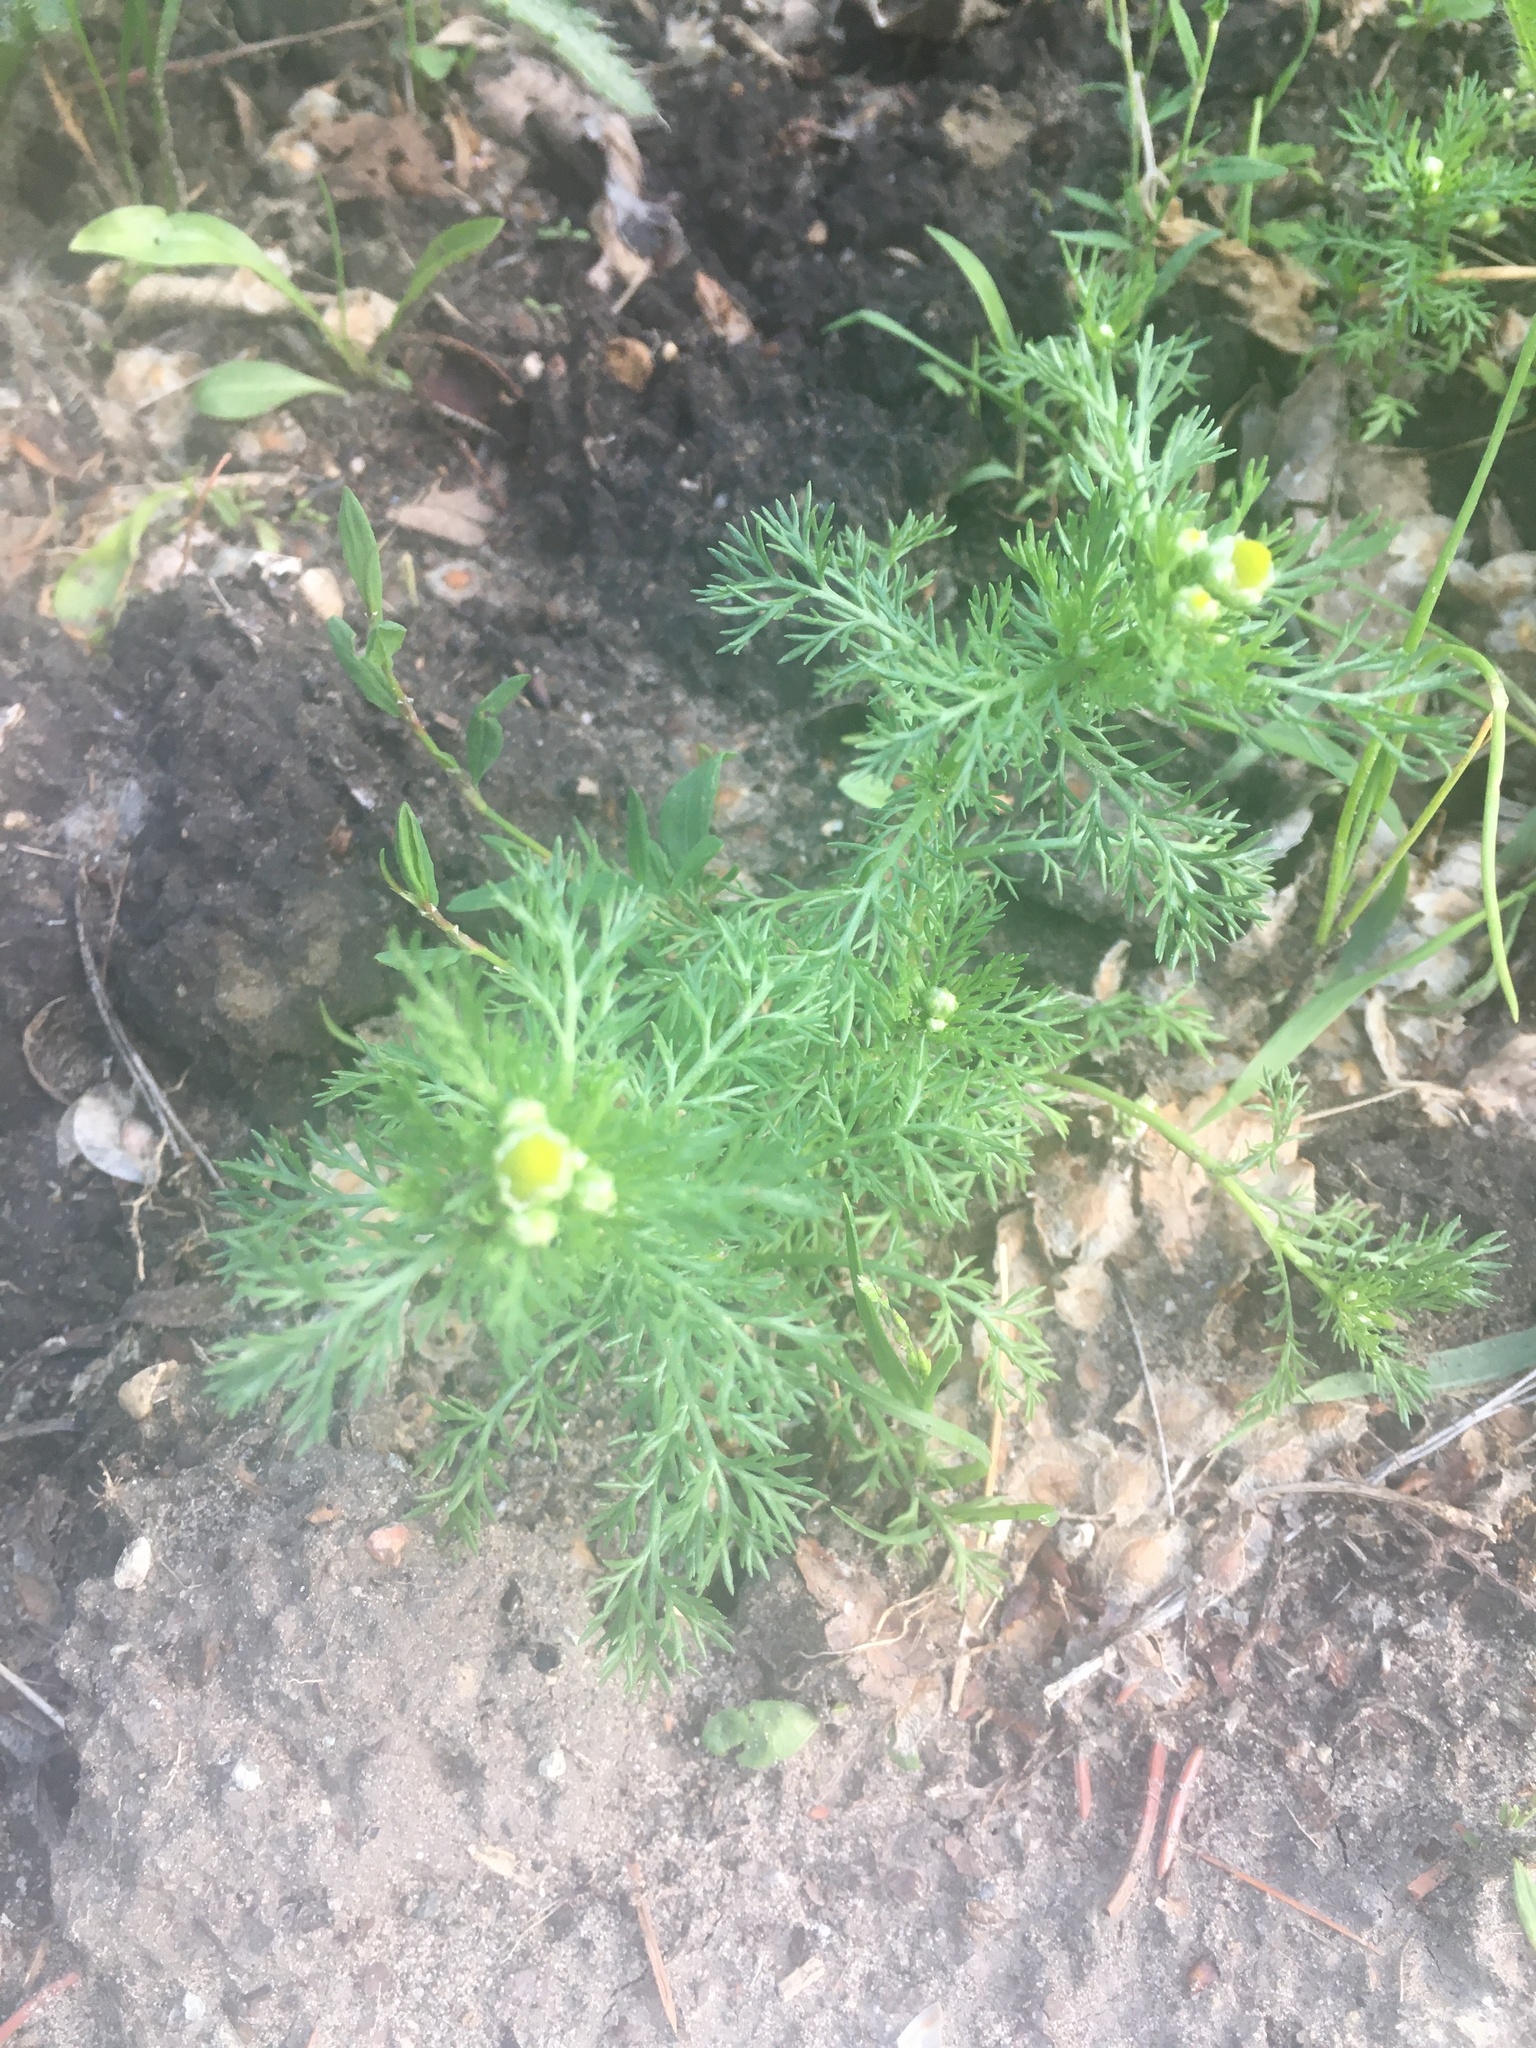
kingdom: Plantae
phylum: Tracheophyta
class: Magnoliopsida
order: Asterales
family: Asteraceae
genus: Matricaria
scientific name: Matricaria discoidea
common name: Disc mayweed
